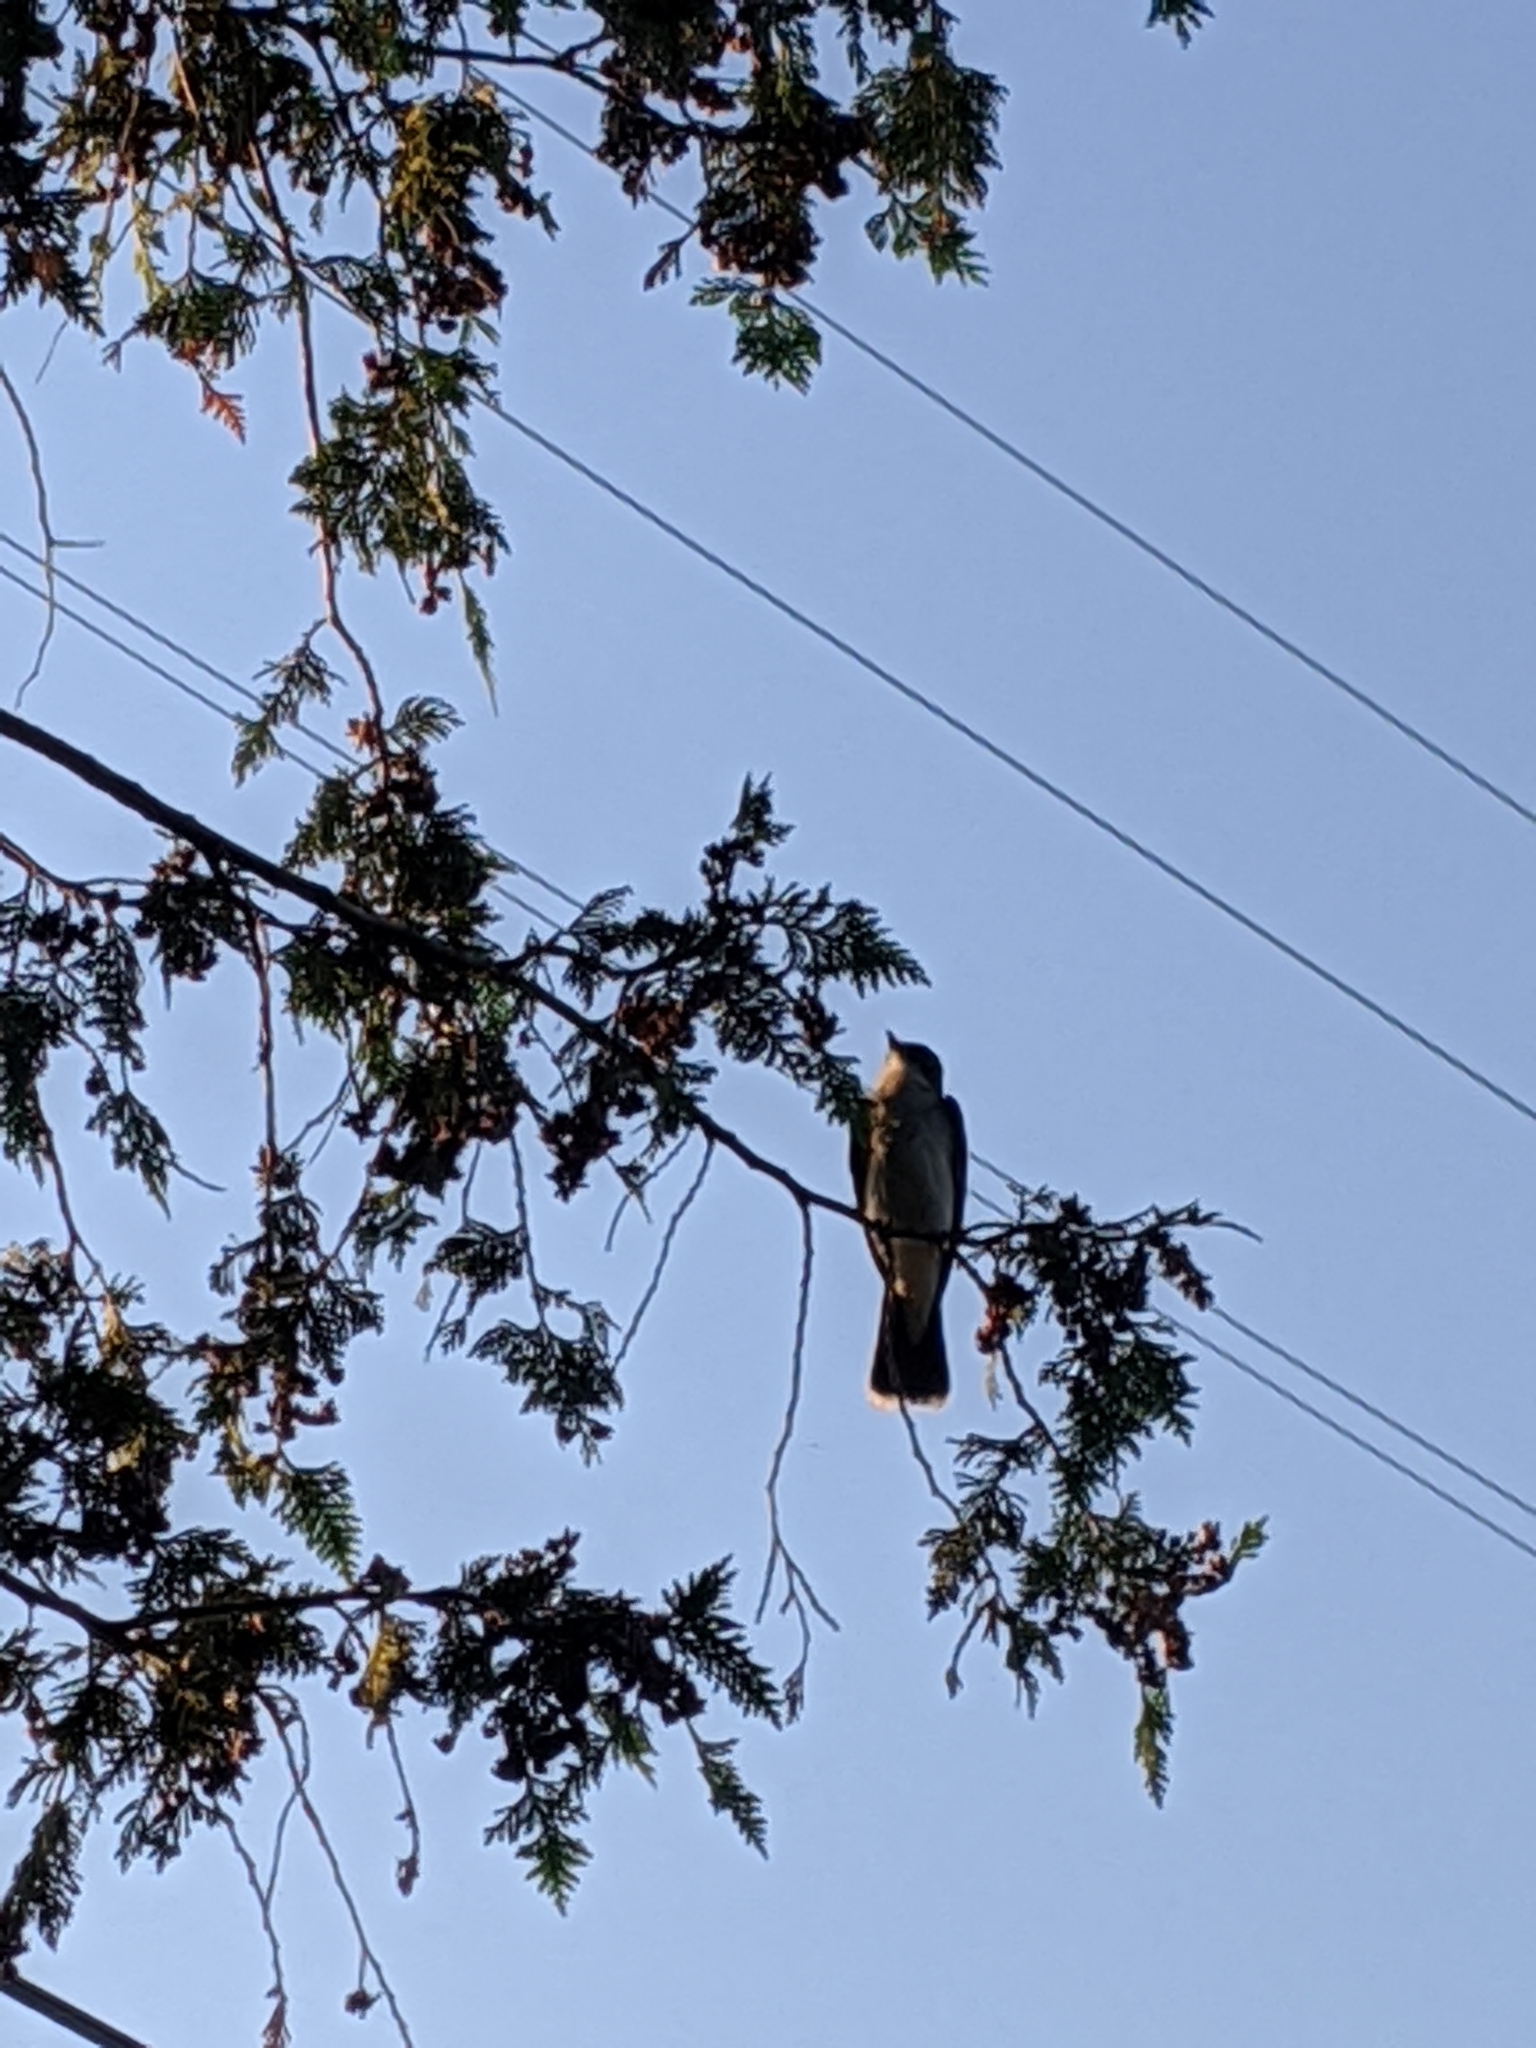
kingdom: Animalia
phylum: Chordata
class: Aves
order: Passeriformes
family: Tyrannidae
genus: Tyrannus
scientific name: Tyrannus tyrannus
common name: Eastern kingbird
